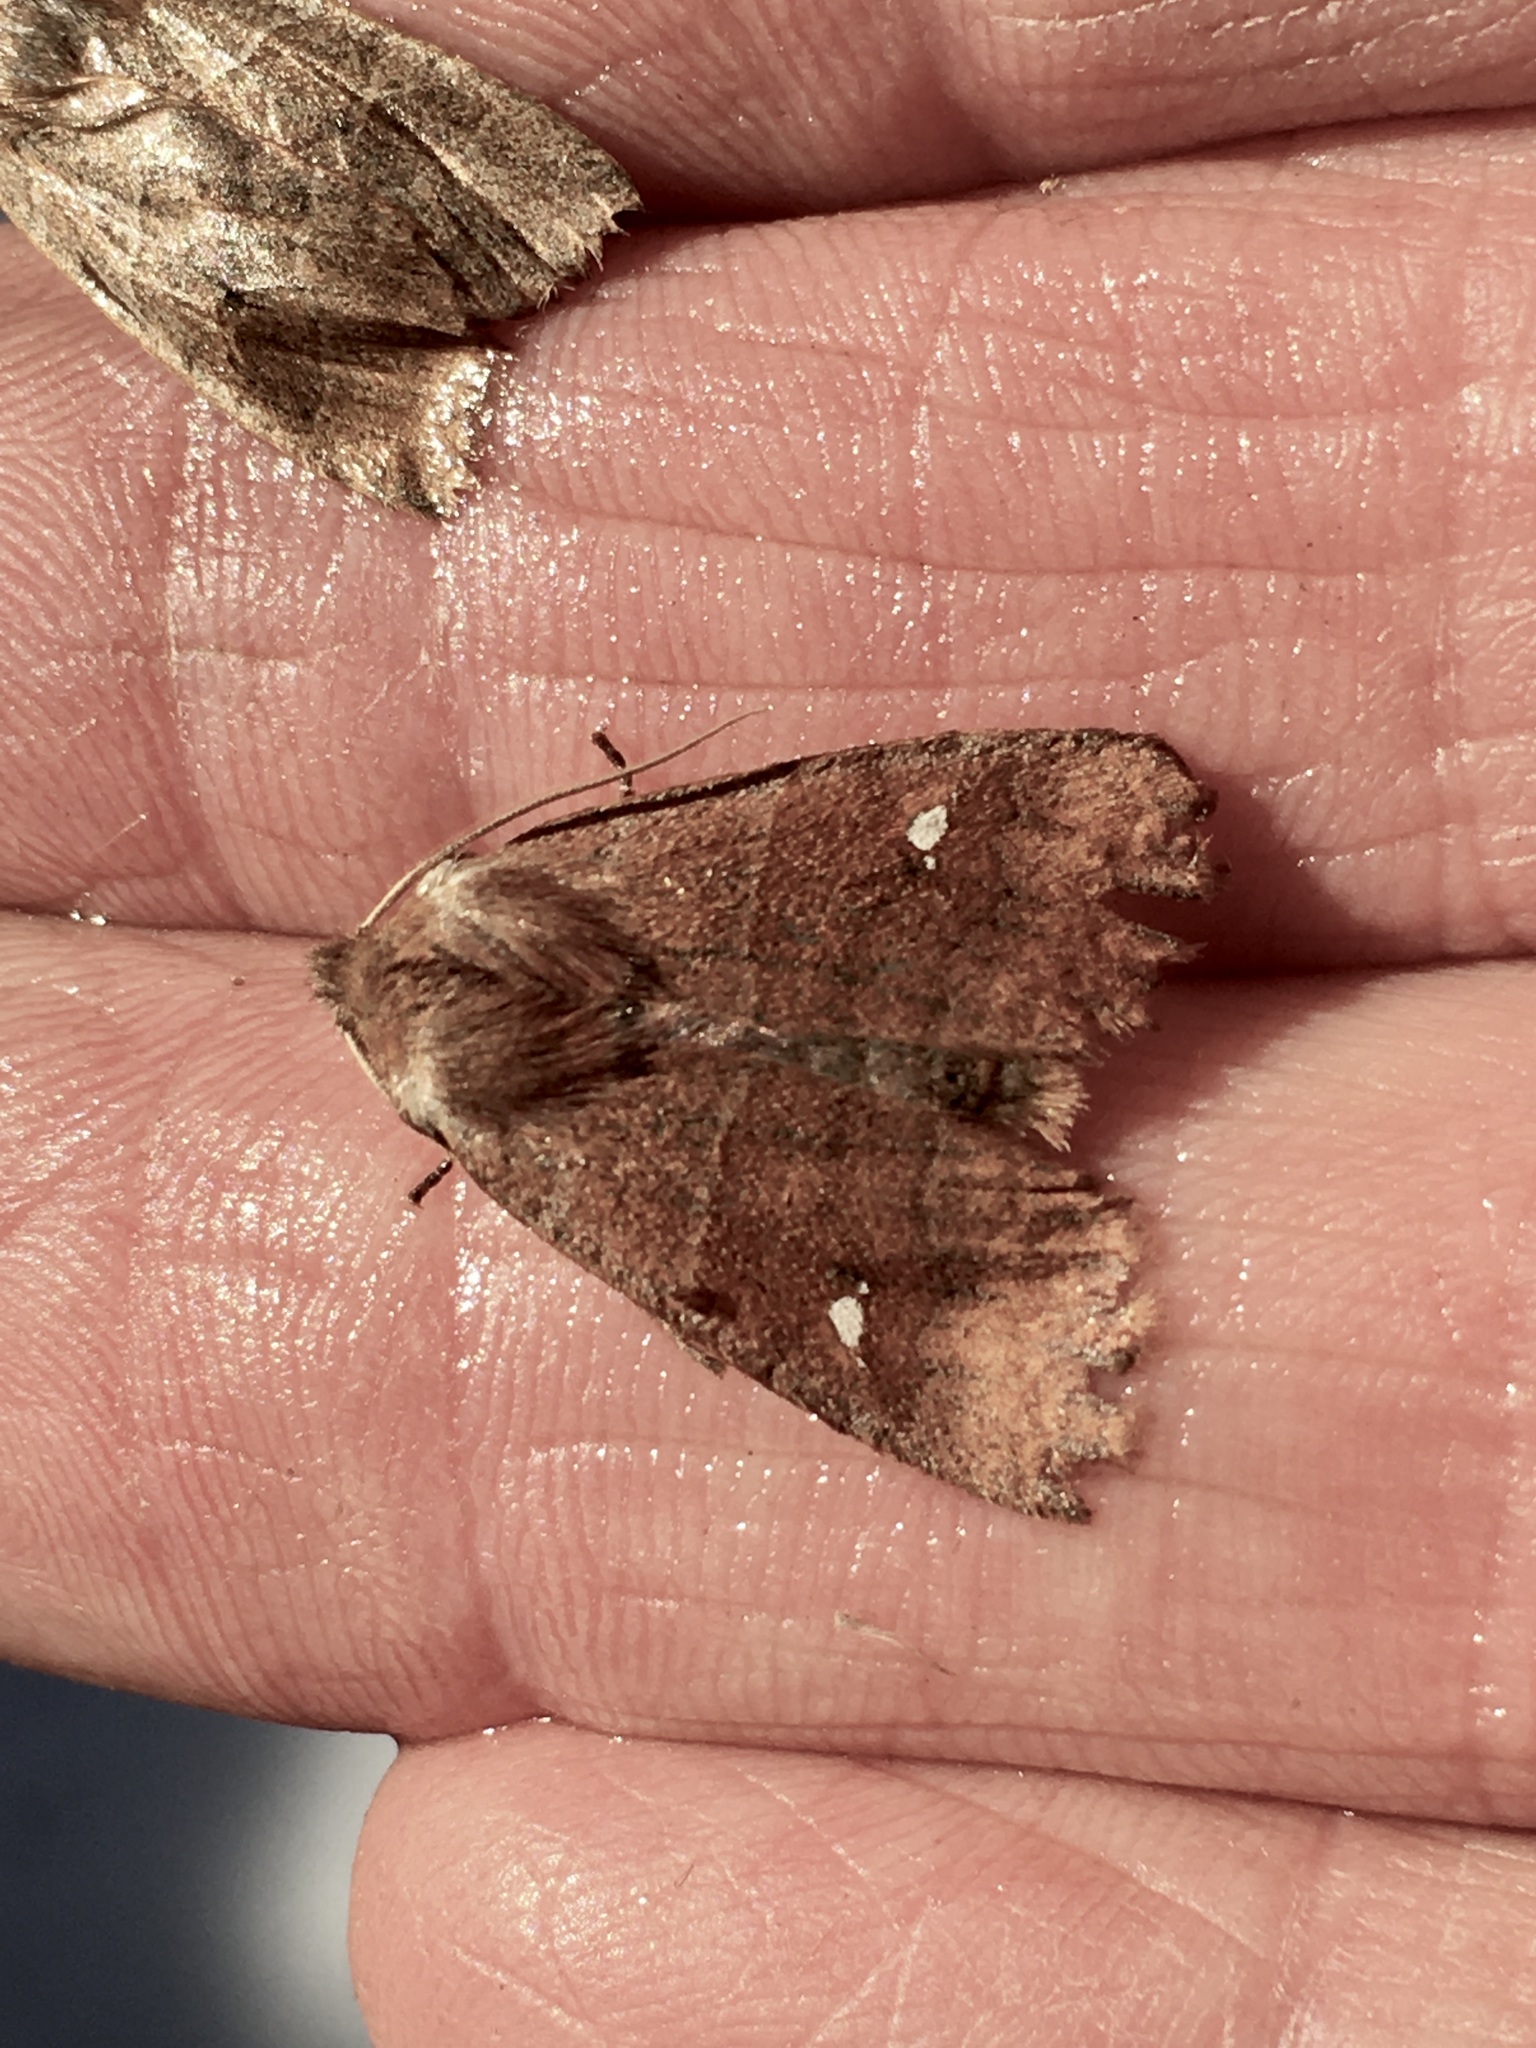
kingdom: Animalia
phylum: Arthropoda
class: Insecta
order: Lepidoptera
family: Noctuidae
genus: Eupsilia
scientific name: Eupsilia vinulenta
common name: Straight-toothed sallow
